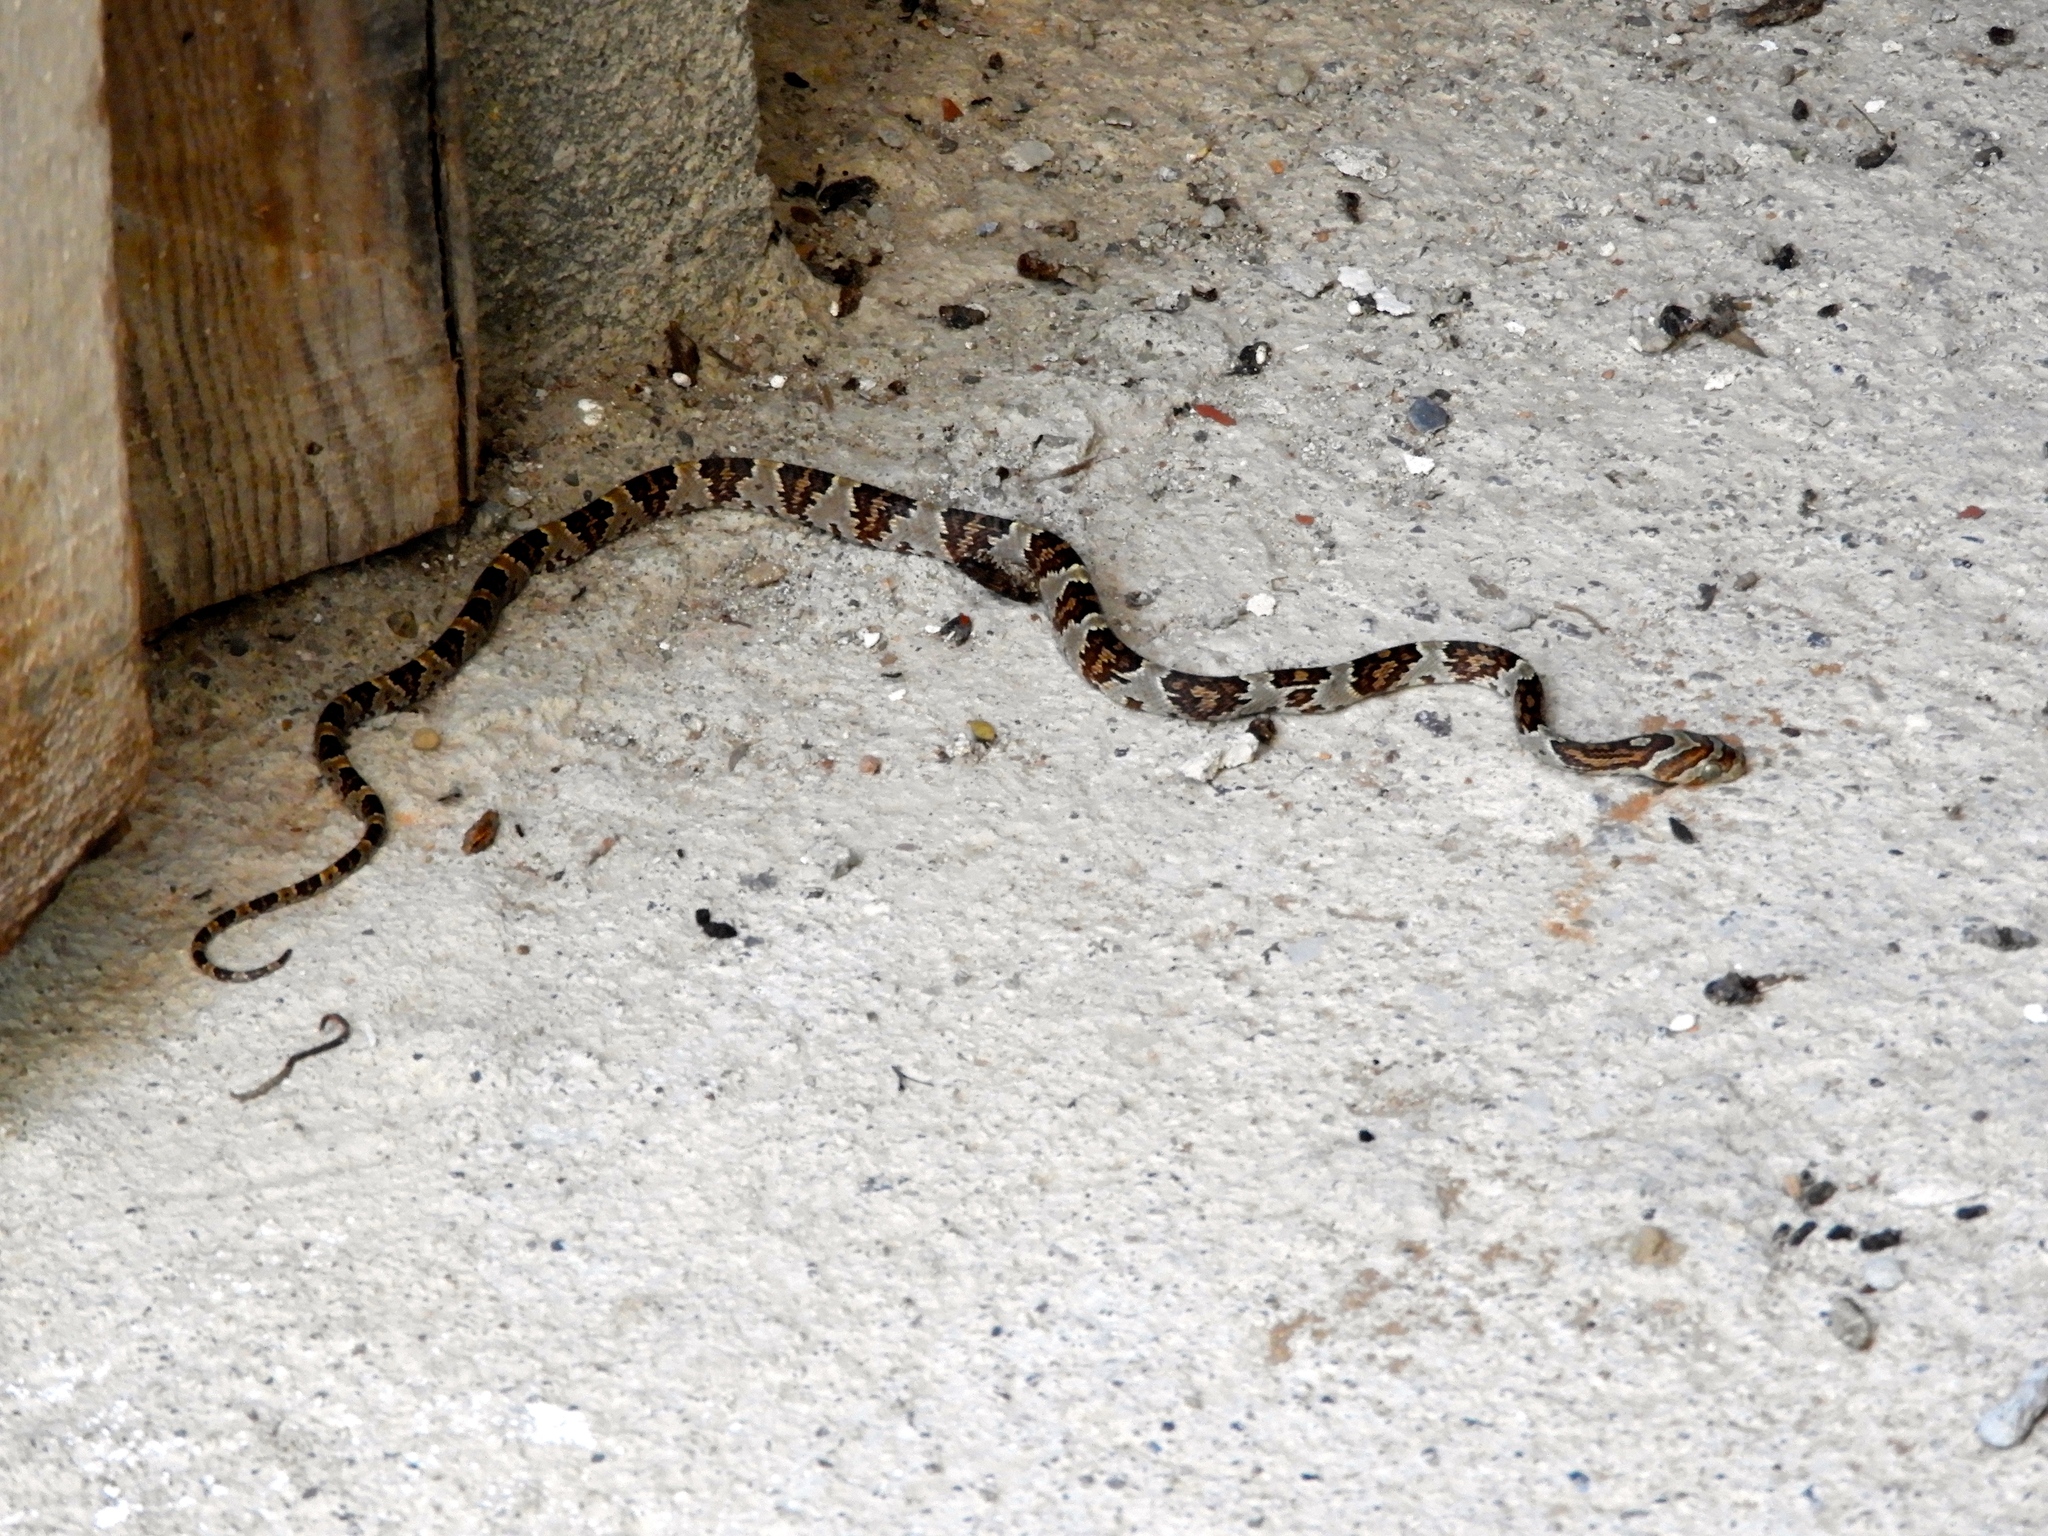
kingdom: Animalia
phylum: Chordata
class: Squamata
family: Colubridae
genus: Trimorphodon
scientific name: Trimorphodon paucimaculatus
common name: Sinaloan lyresnake
